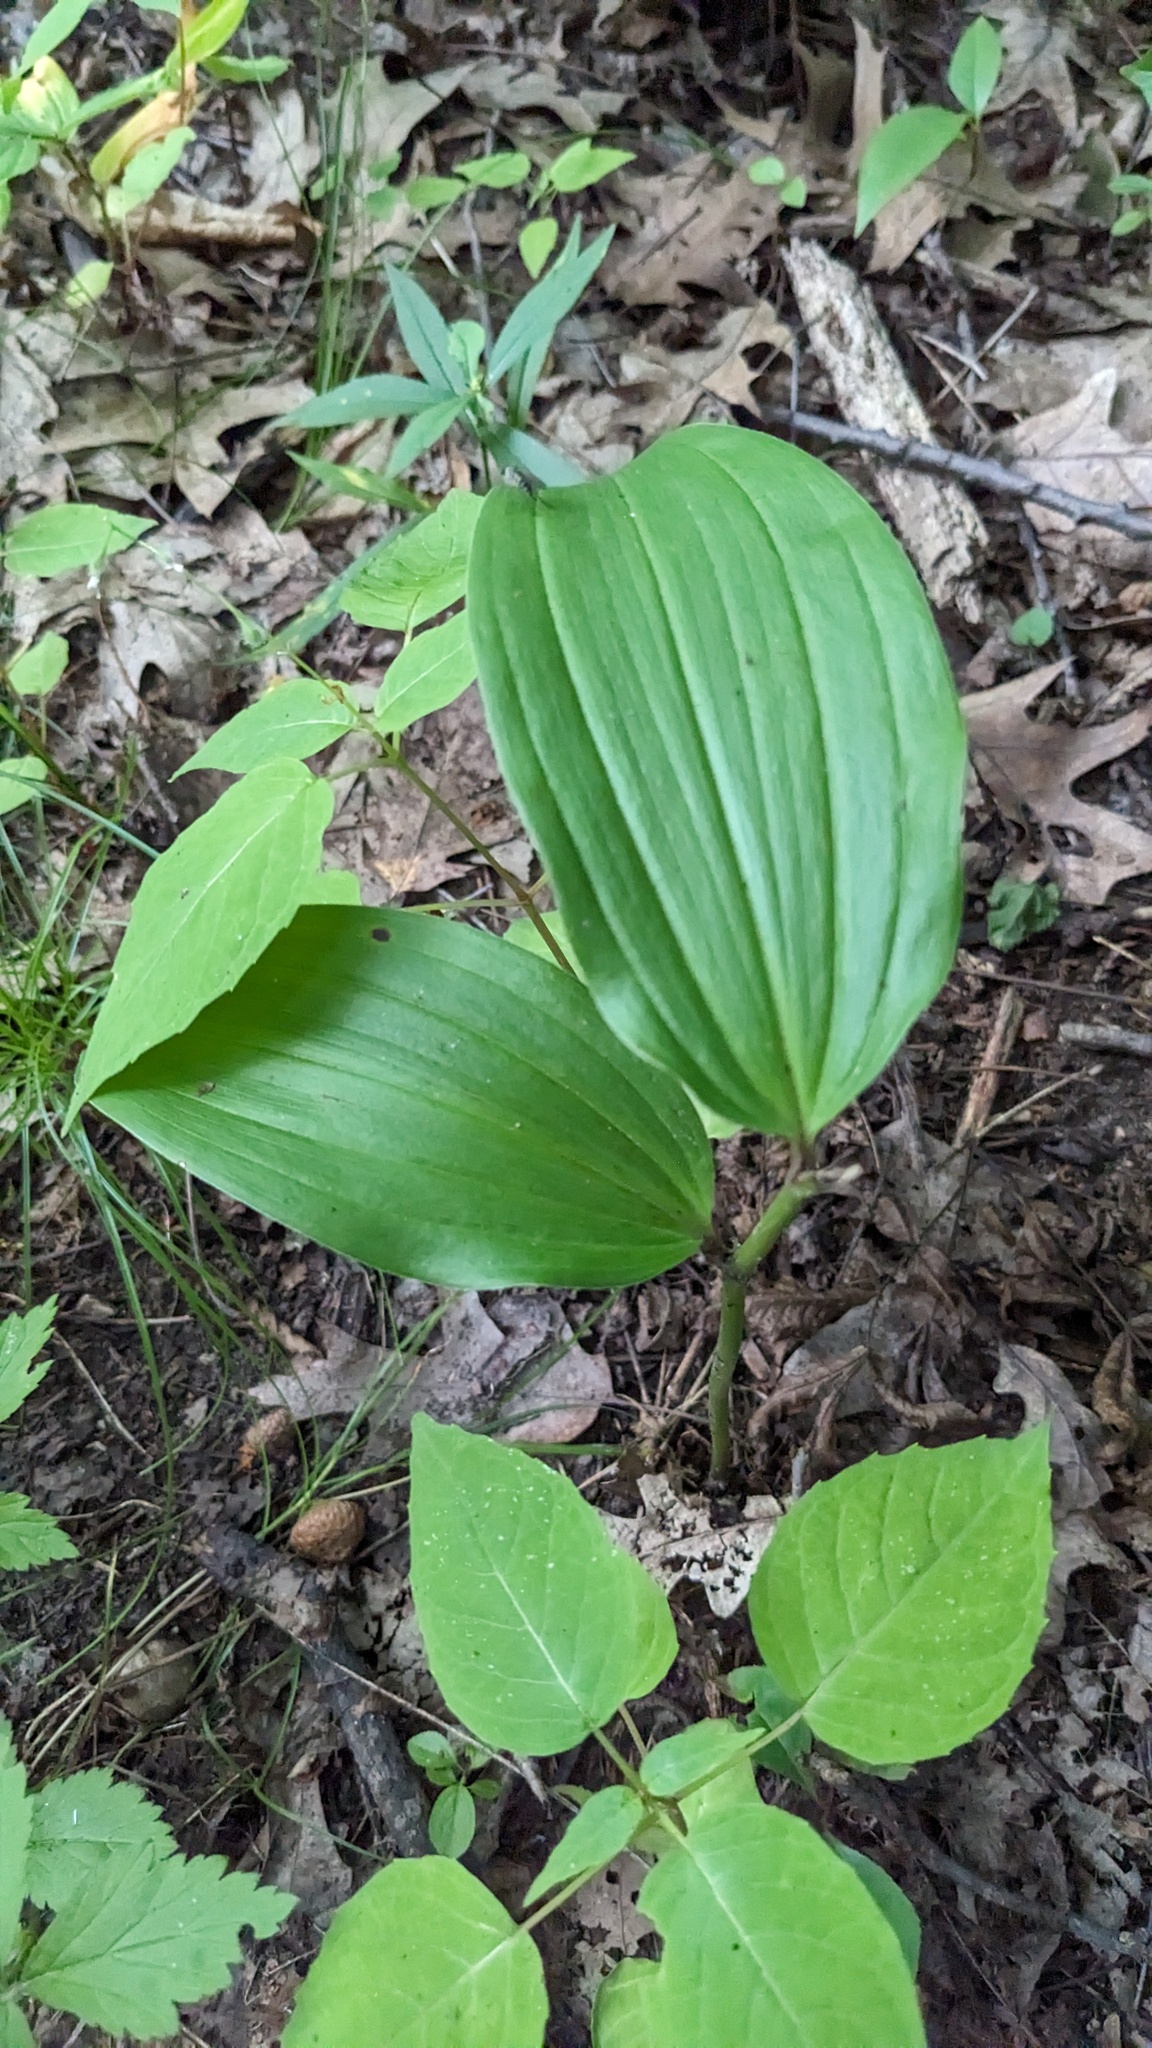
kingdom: Plantae
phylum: Tracheophyta
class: Liliopsida
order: Asparagales
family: Asparagaceae
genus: Maianthemum
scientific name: Maianthemum racemosum
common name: False spikenard
